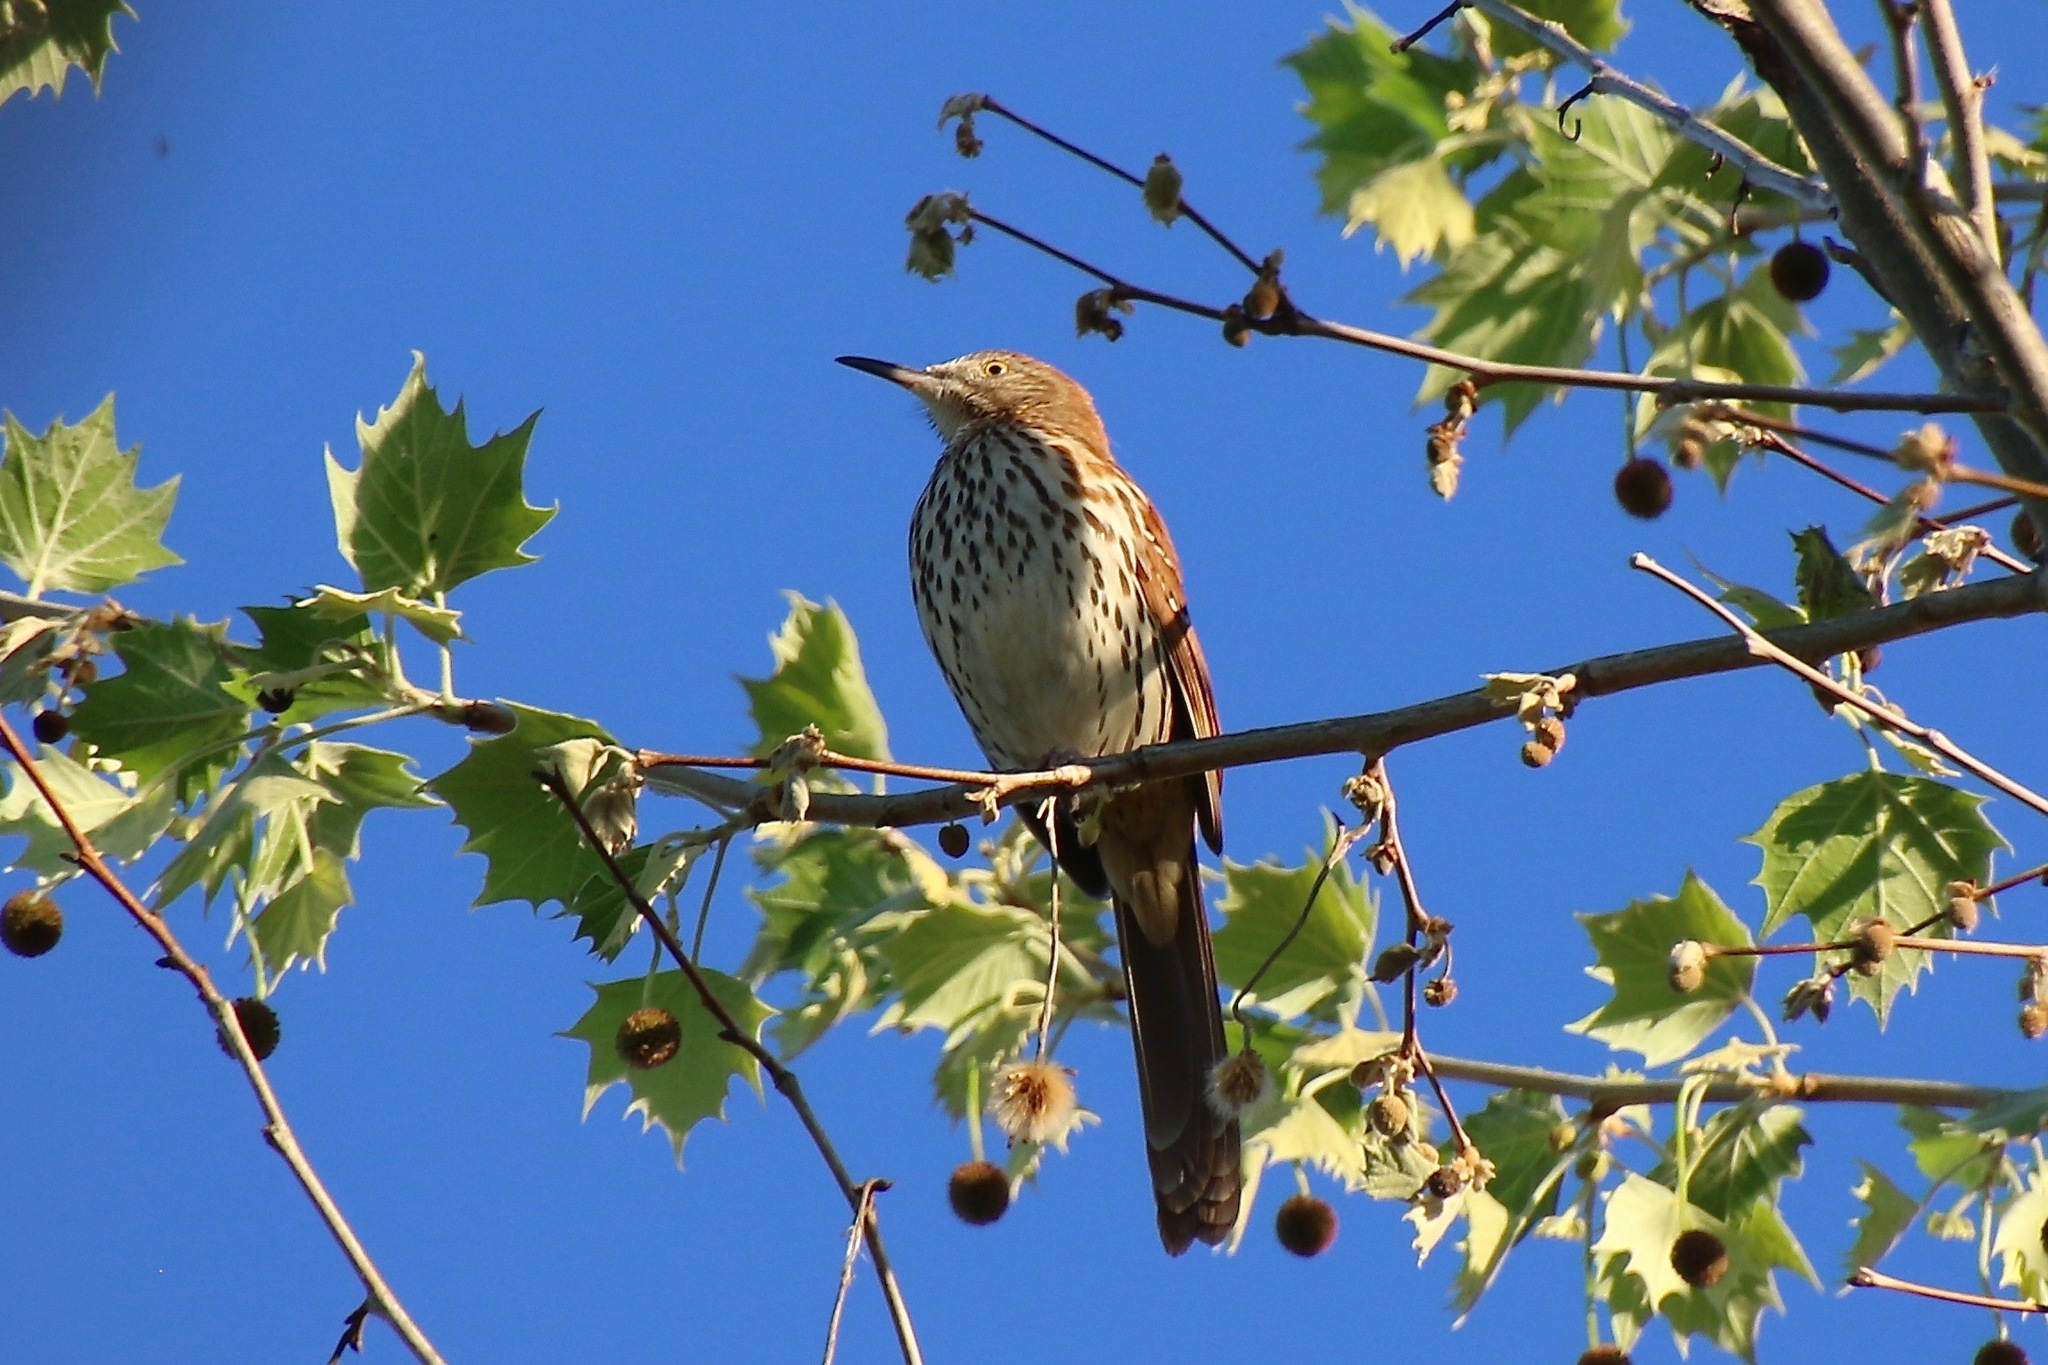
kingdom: Animalia
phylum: Chordata
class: Aves
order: Passeriformes
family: Mimidae
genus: Toxostoma
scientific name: Toxostoma rufum
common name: Brown thrasher
